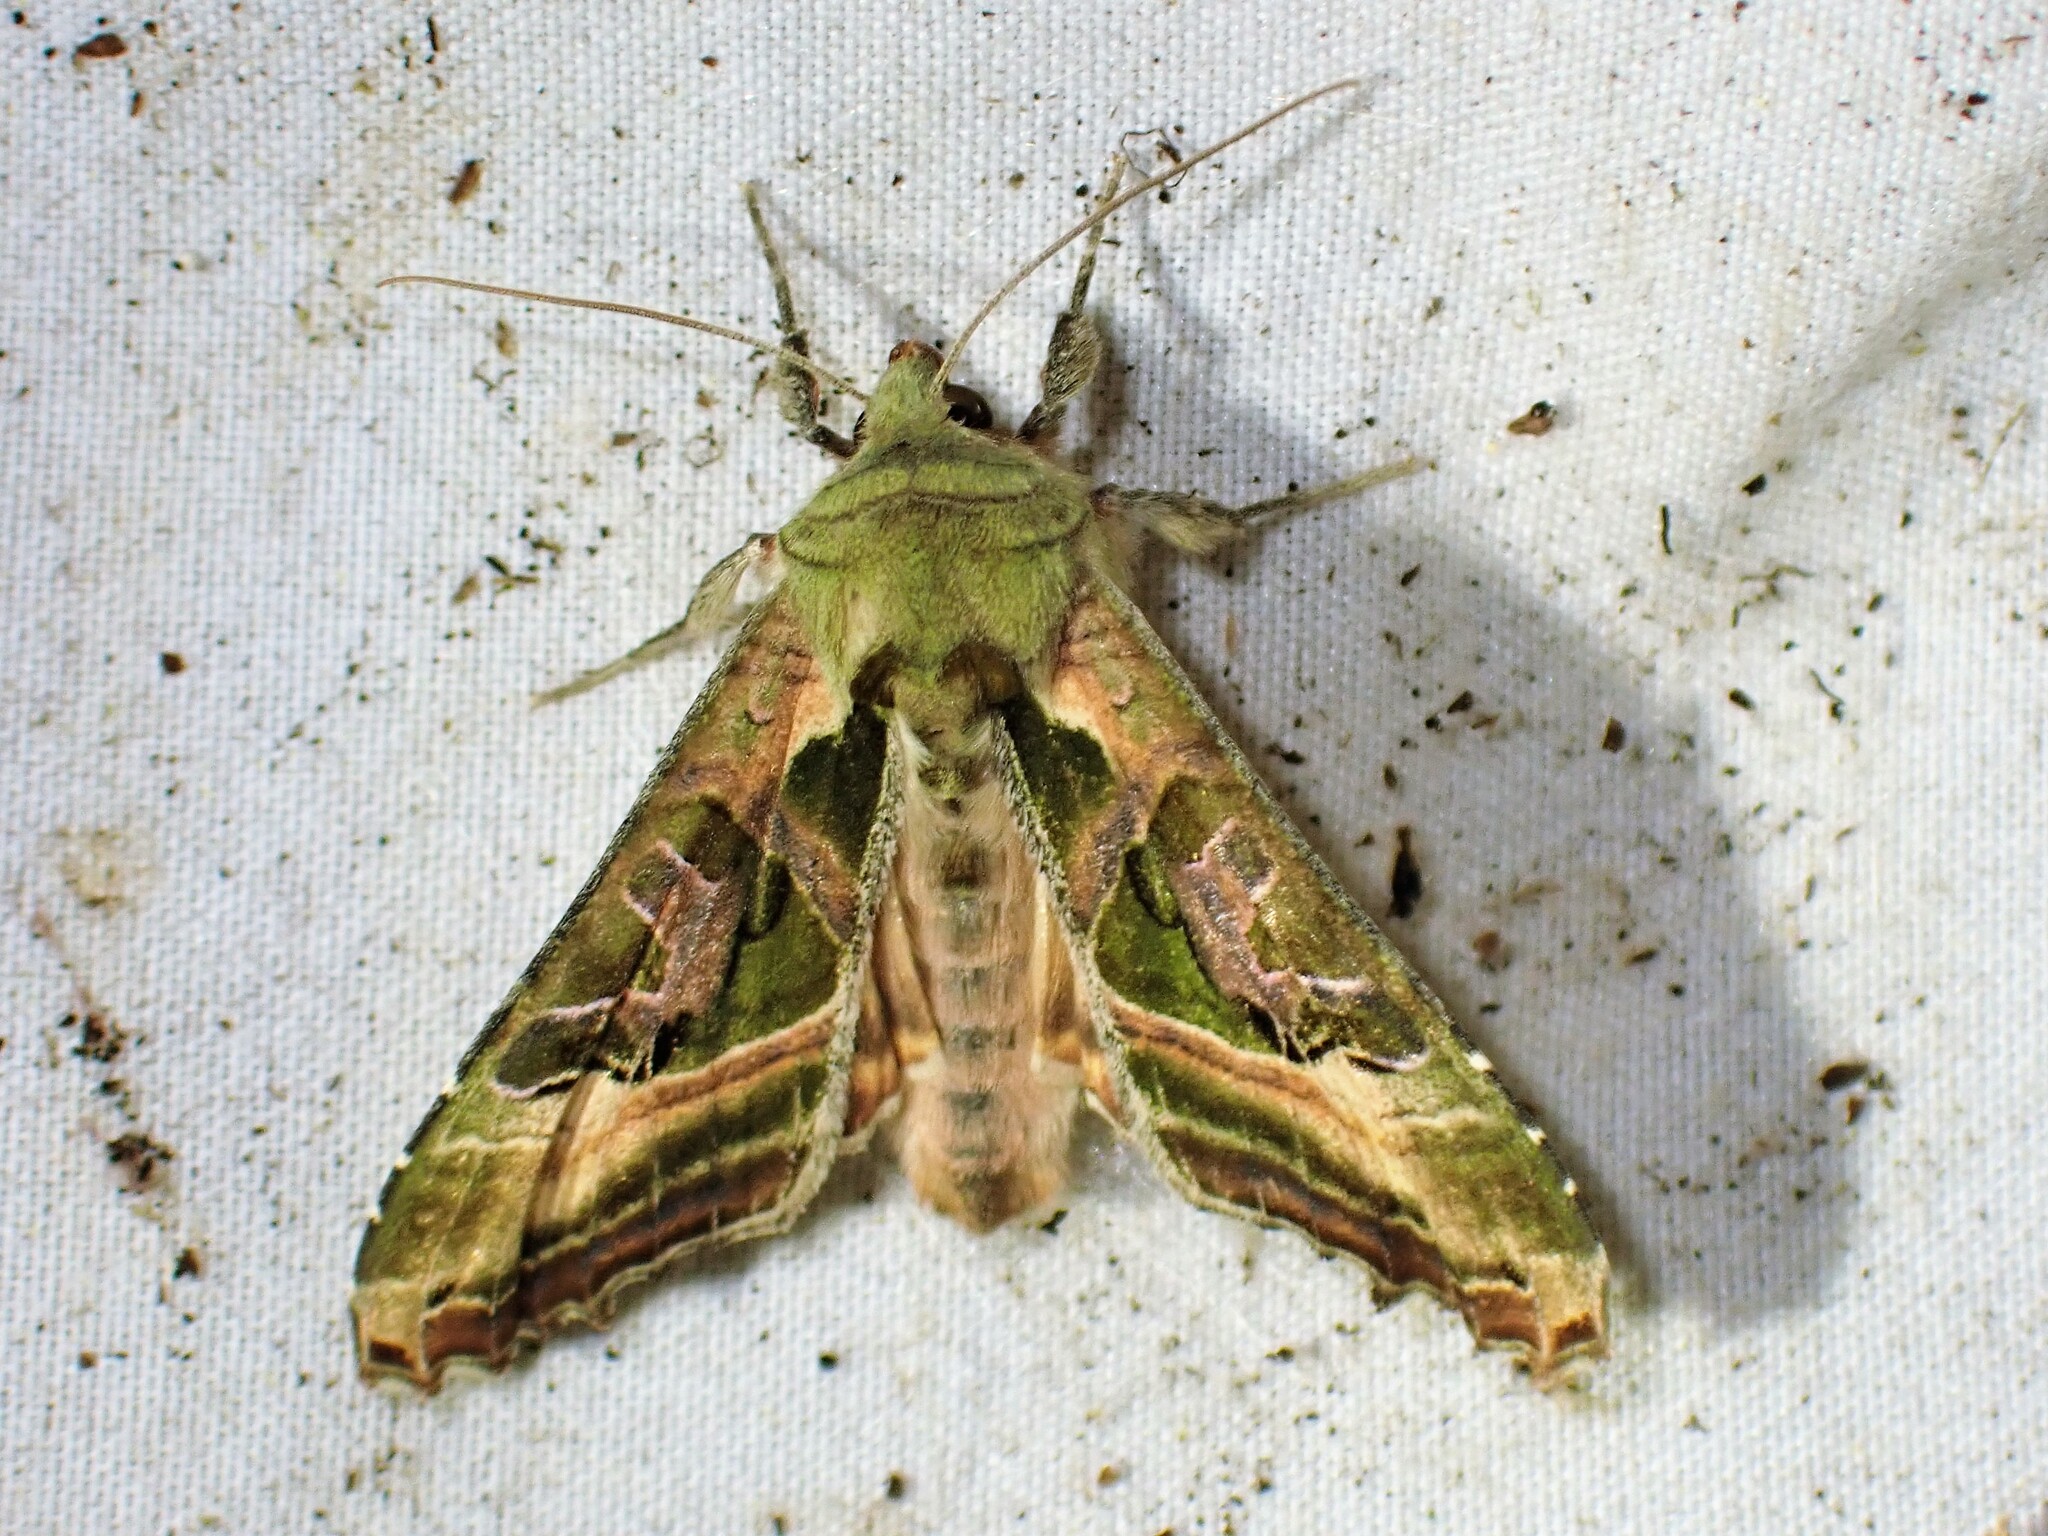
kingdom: Animalia
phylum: Arthropoda
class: Insecta
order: Lepidoptera
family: Noctuidae
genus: Phlogophora
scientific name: Phlogophora iris
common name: Olive angle shades
